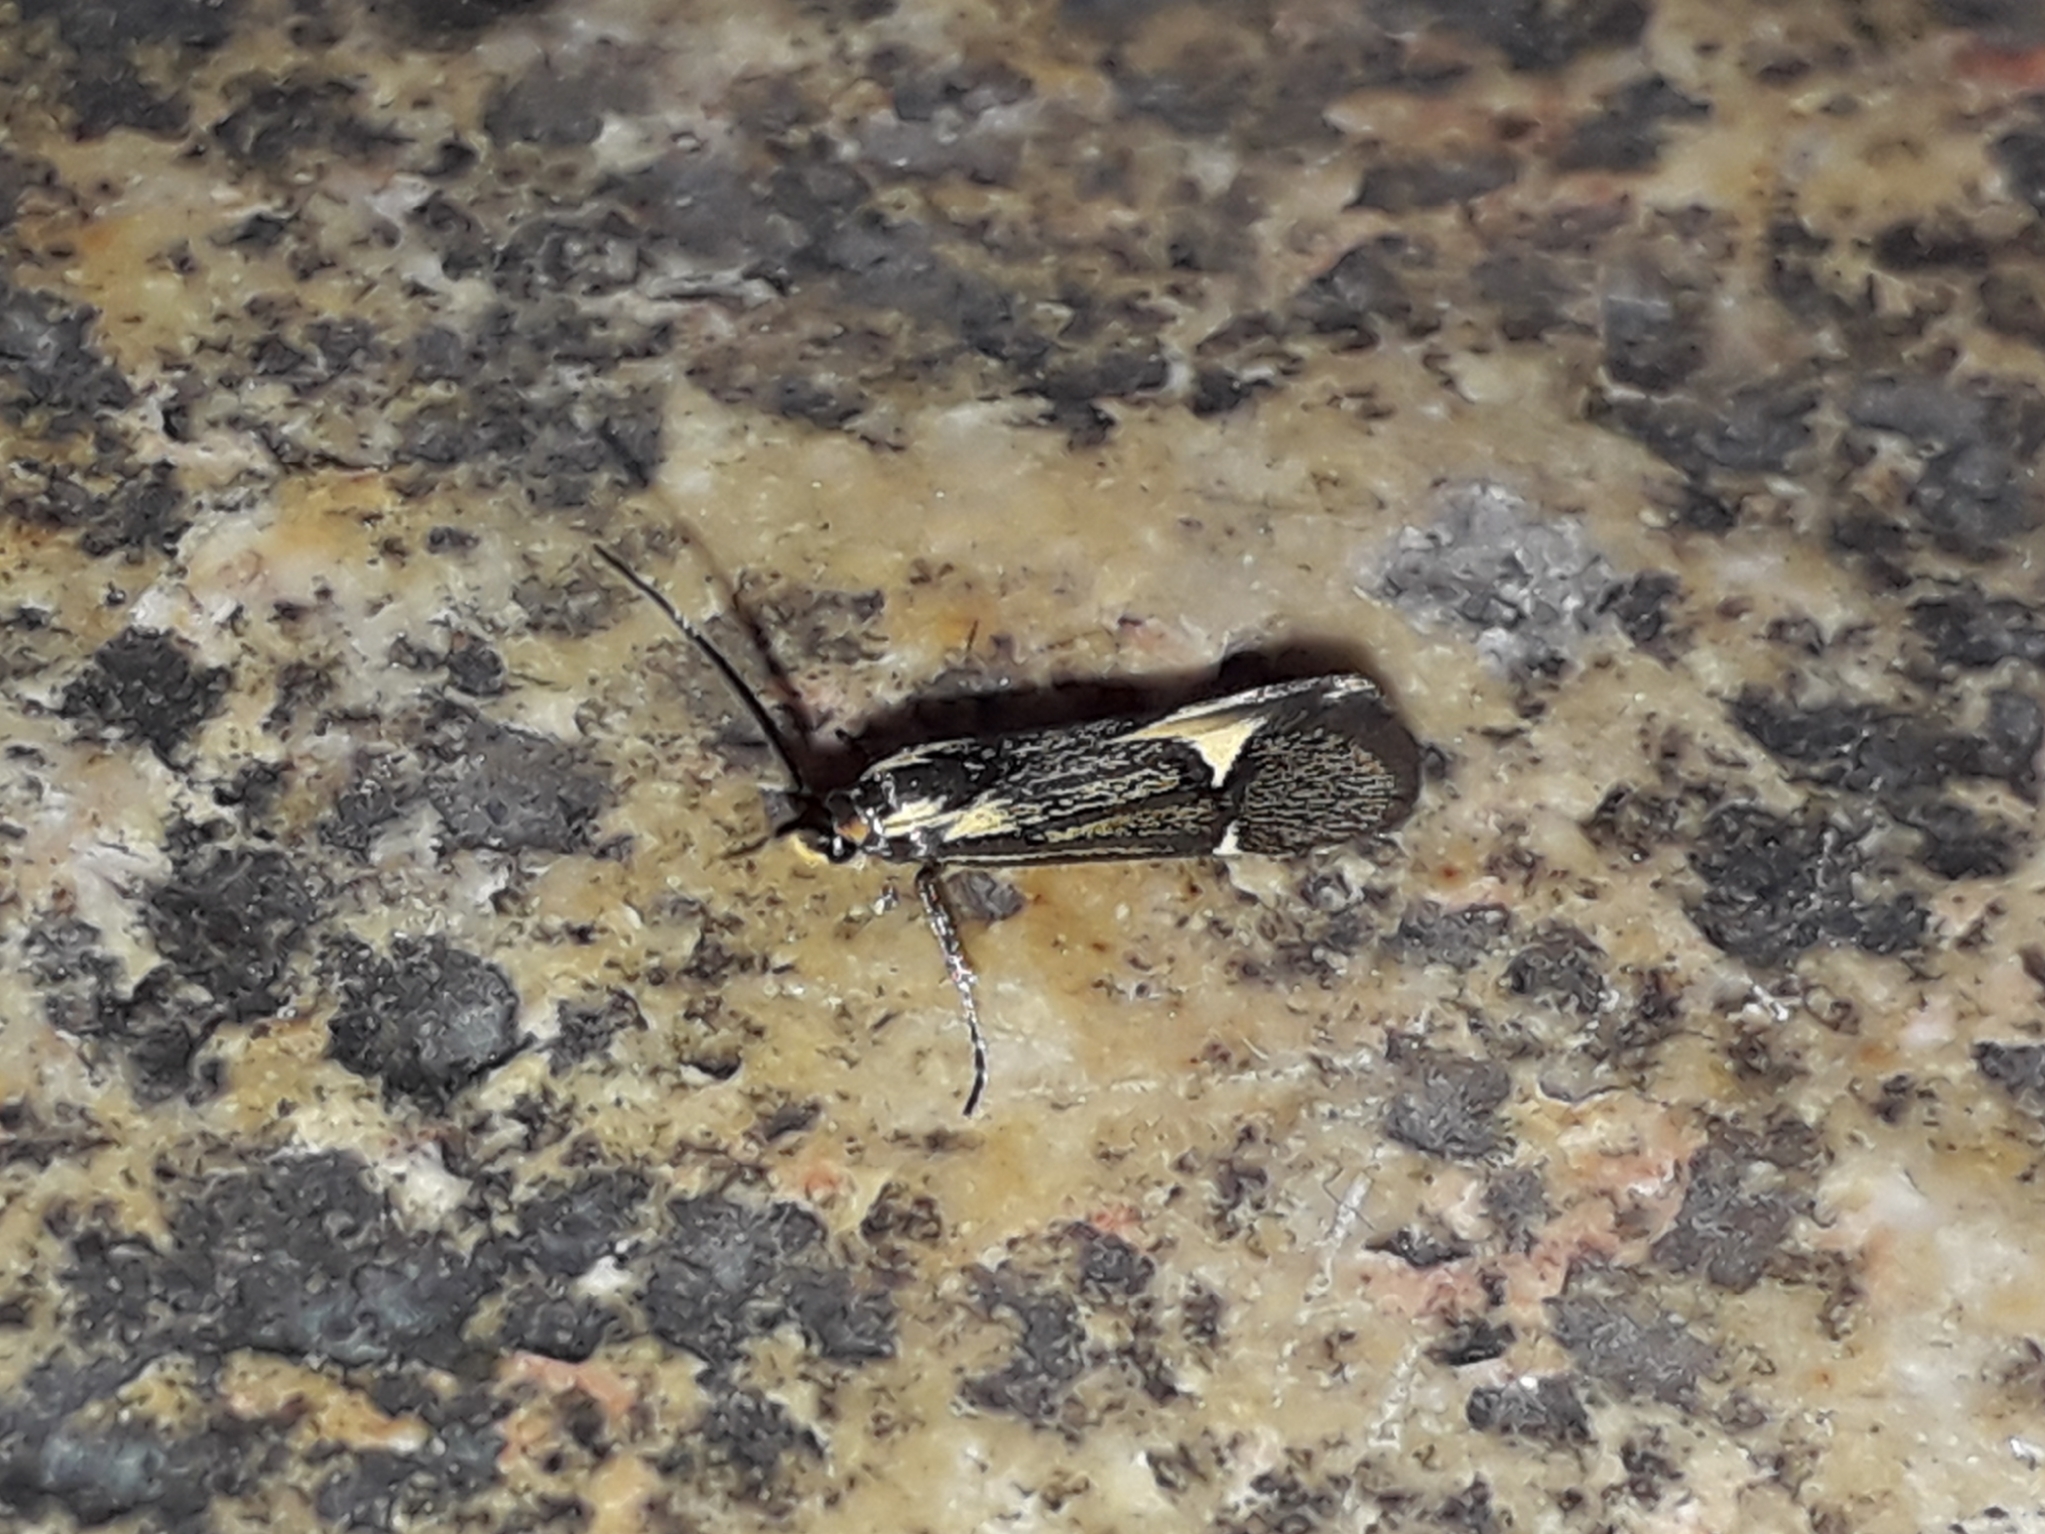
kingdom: Animalia
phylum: Arthropoda
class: Insecta
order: Lepidoptera
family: Oecophoridae
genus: Dafa
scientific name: Dafa Esperia sulphurella
